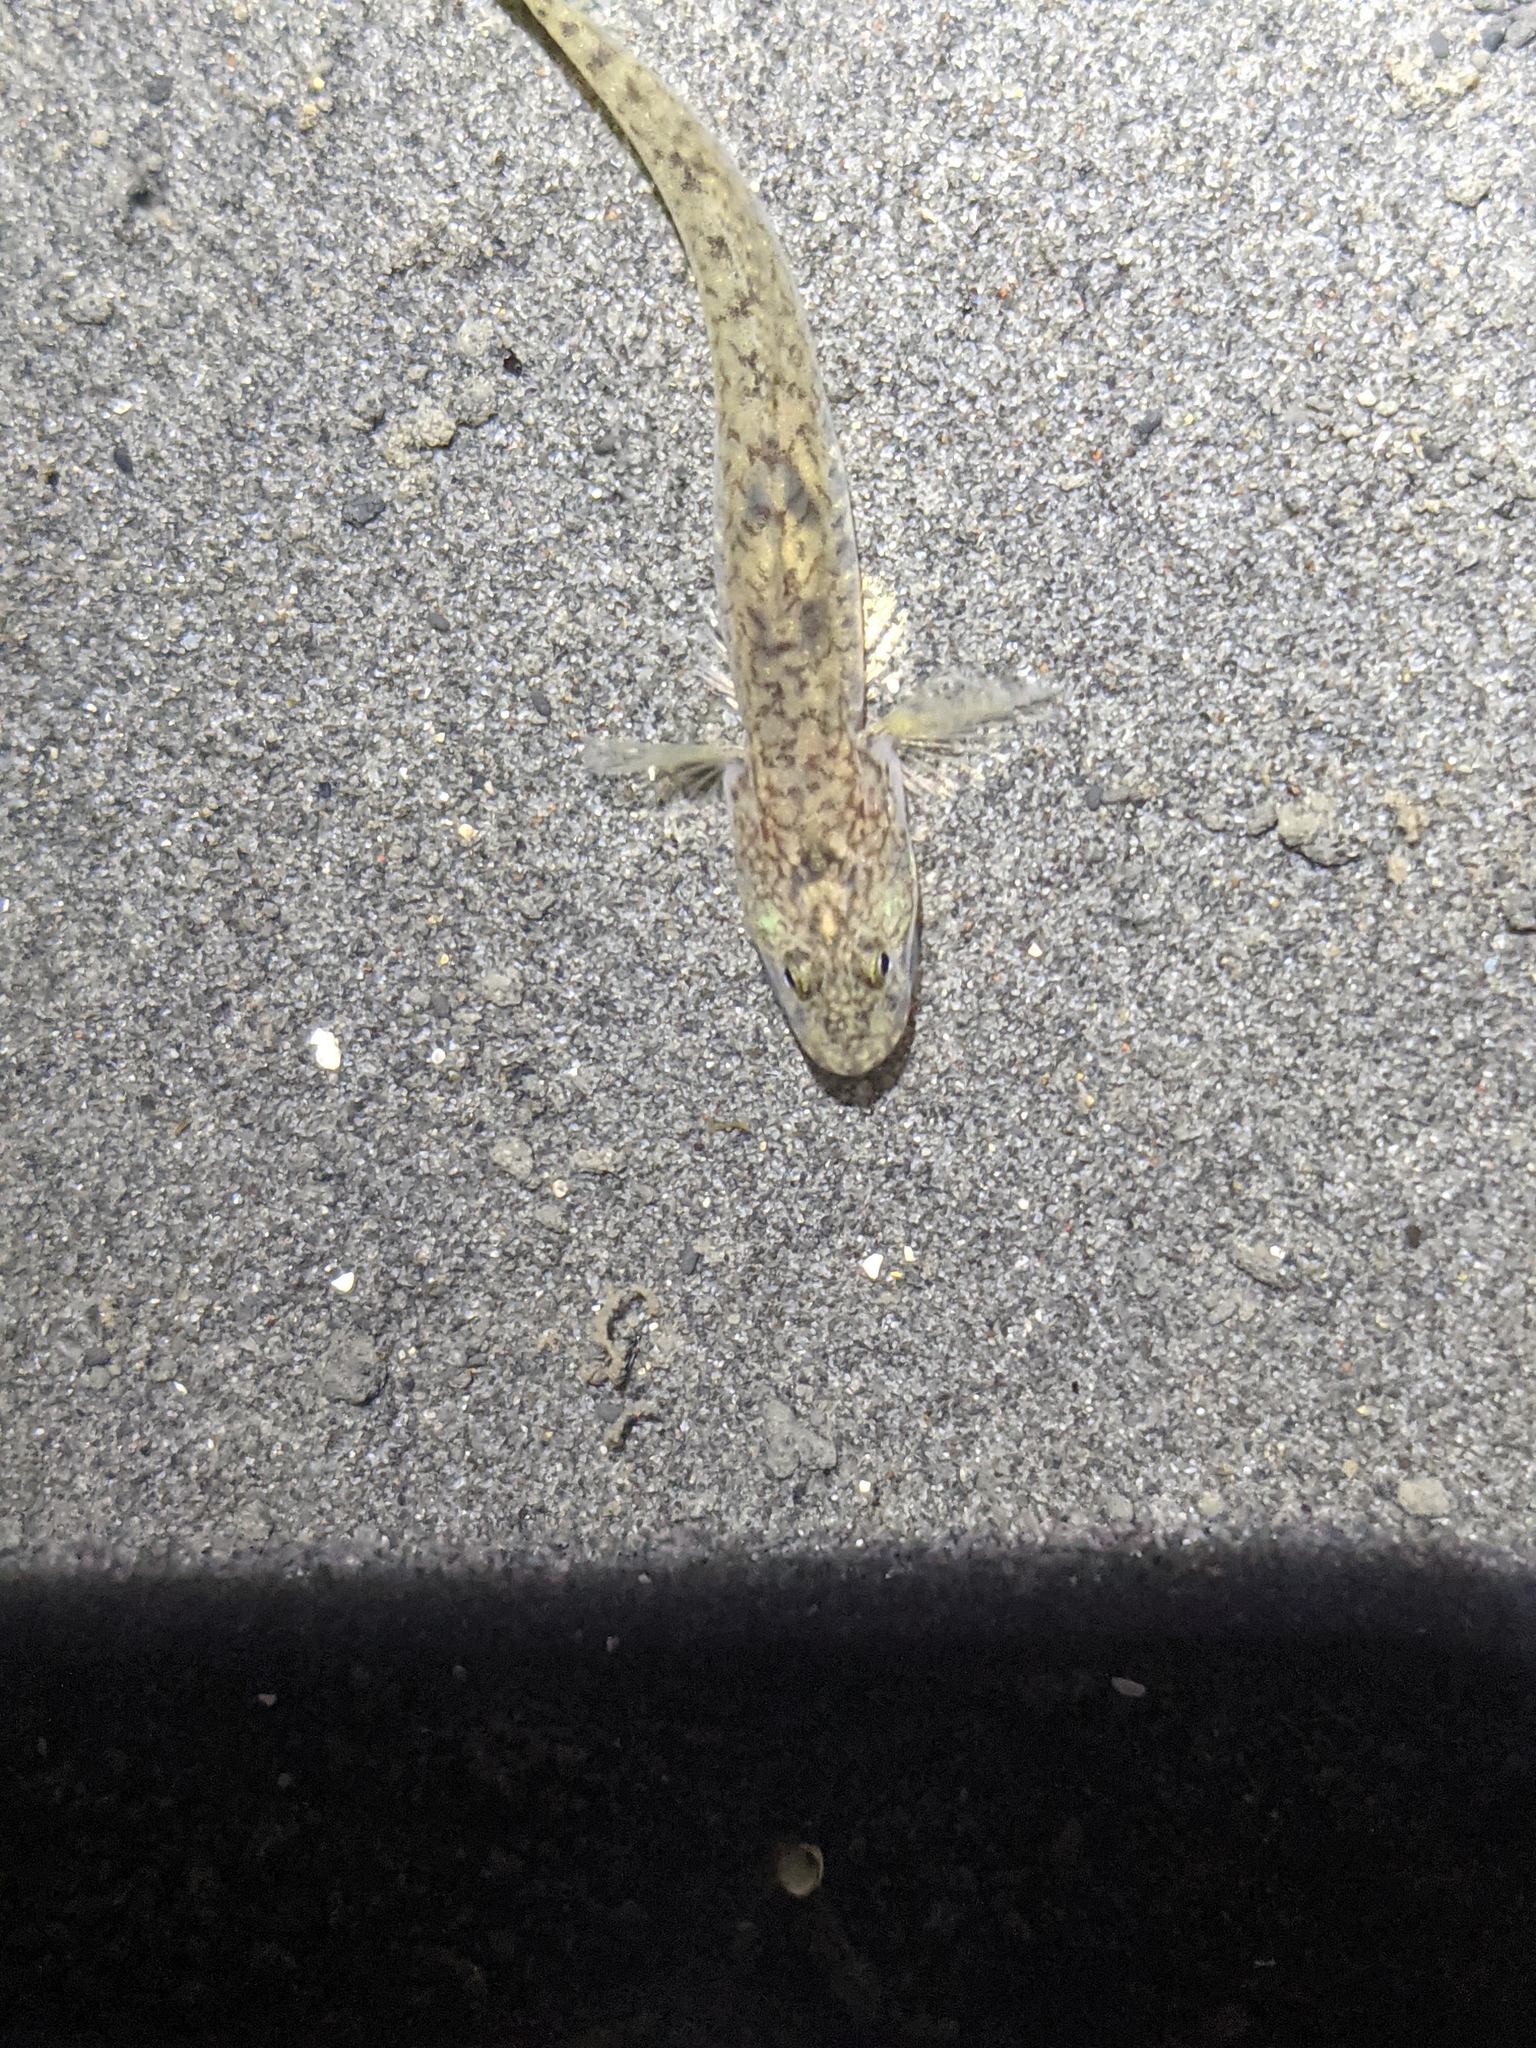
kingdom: Animalia
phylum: Chordata
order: Perciformes
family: Gobiidae
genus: Clevelandia
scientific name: Clevelandia ios
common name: Arrow goby
